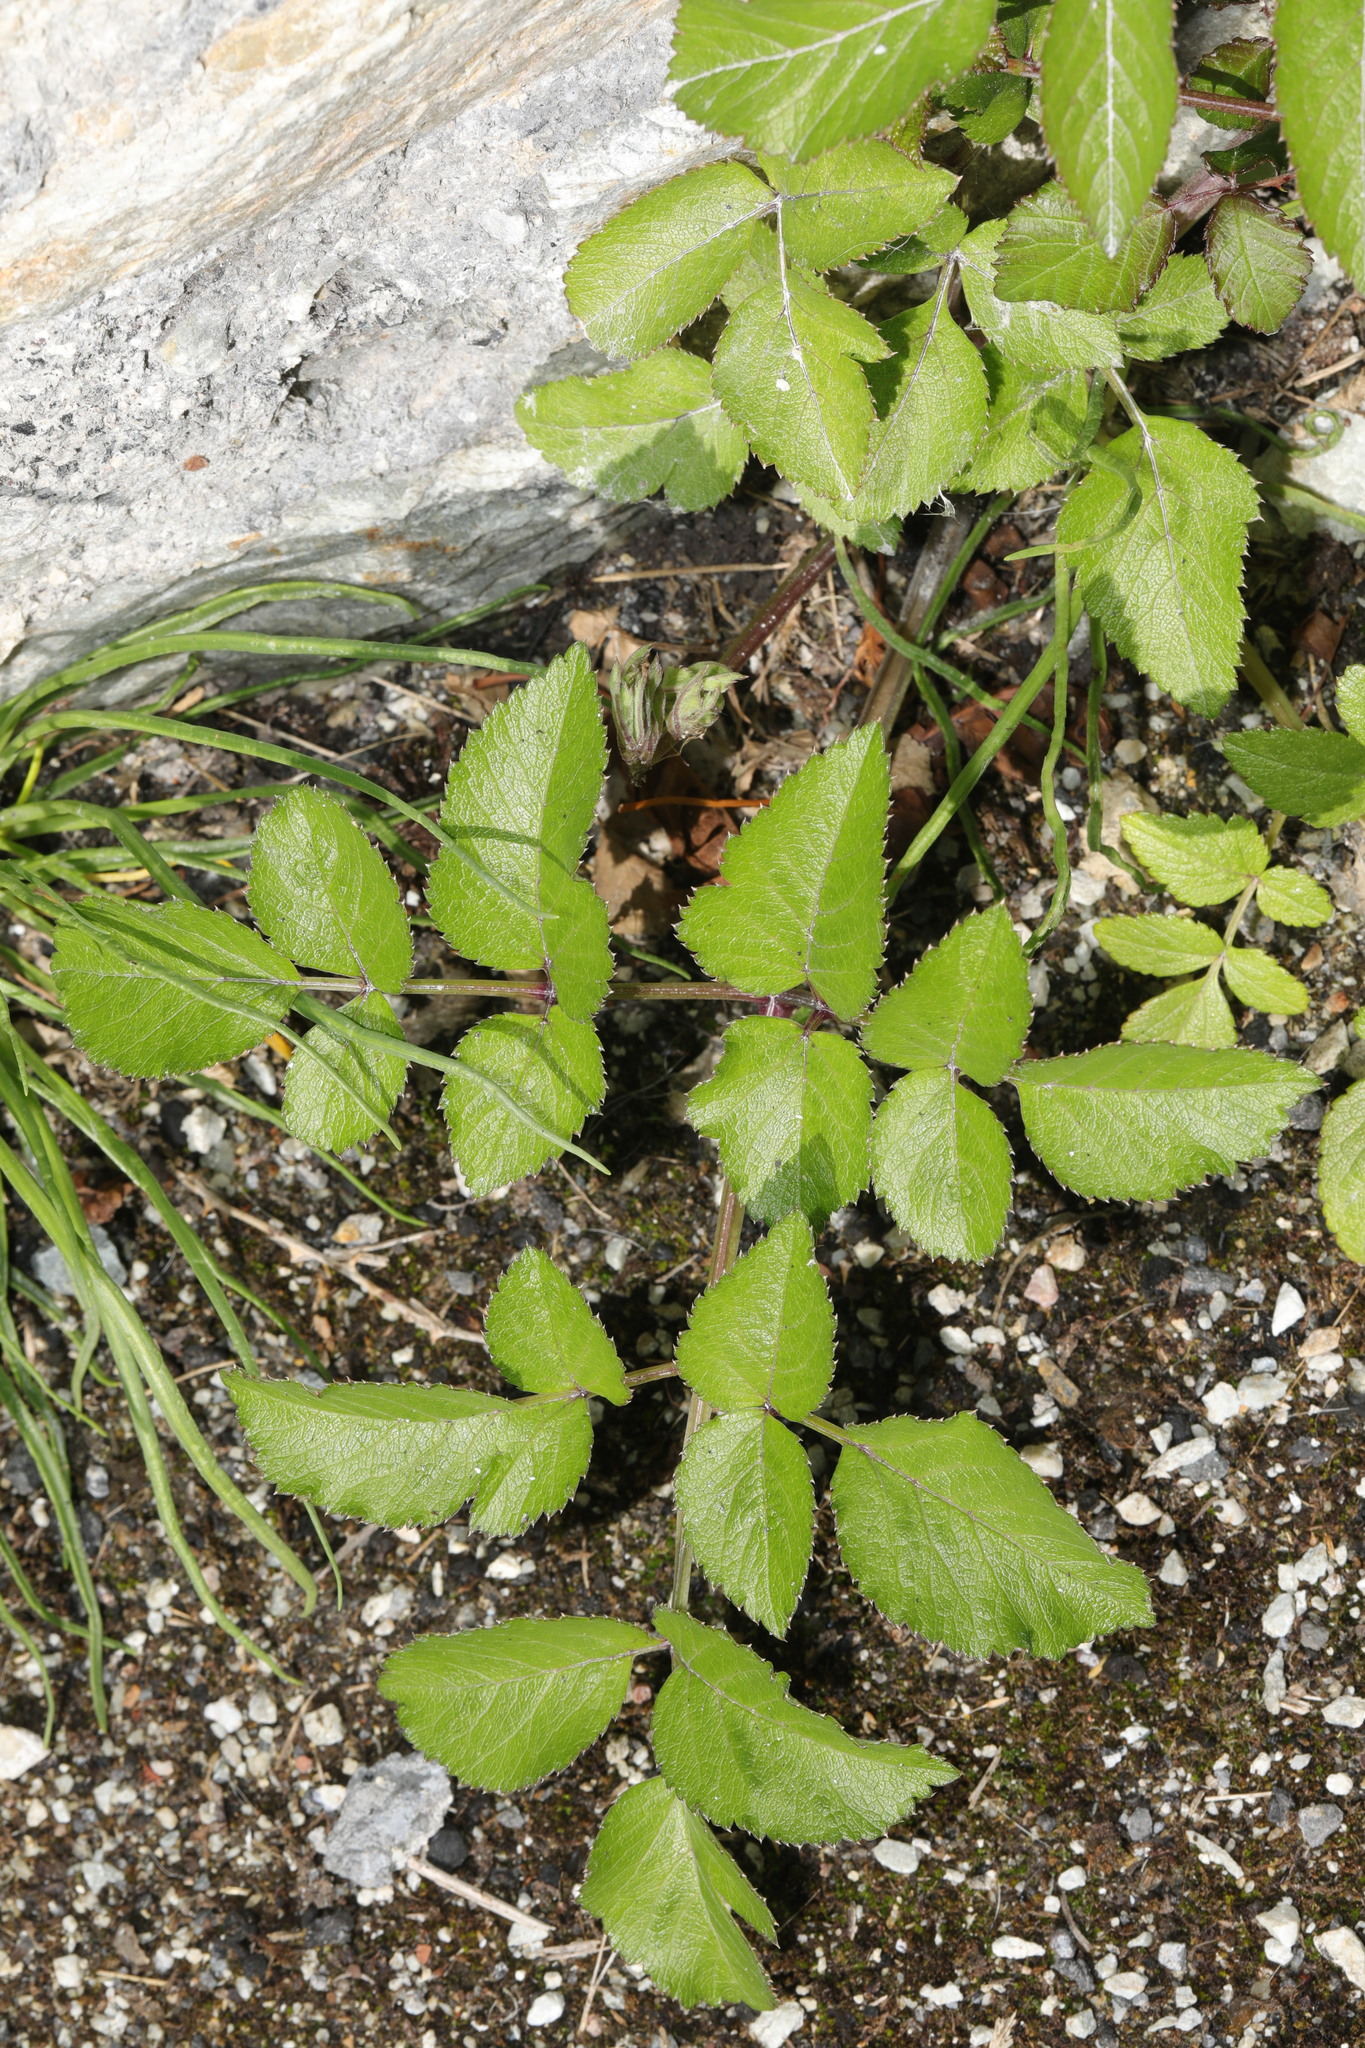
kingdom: Plantae
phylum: Tracheophyta
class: Magnoliopsida
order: Apiales
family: Apiaceae
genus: Angelica
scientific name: Angelica sylvestris
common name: Wild angelica
